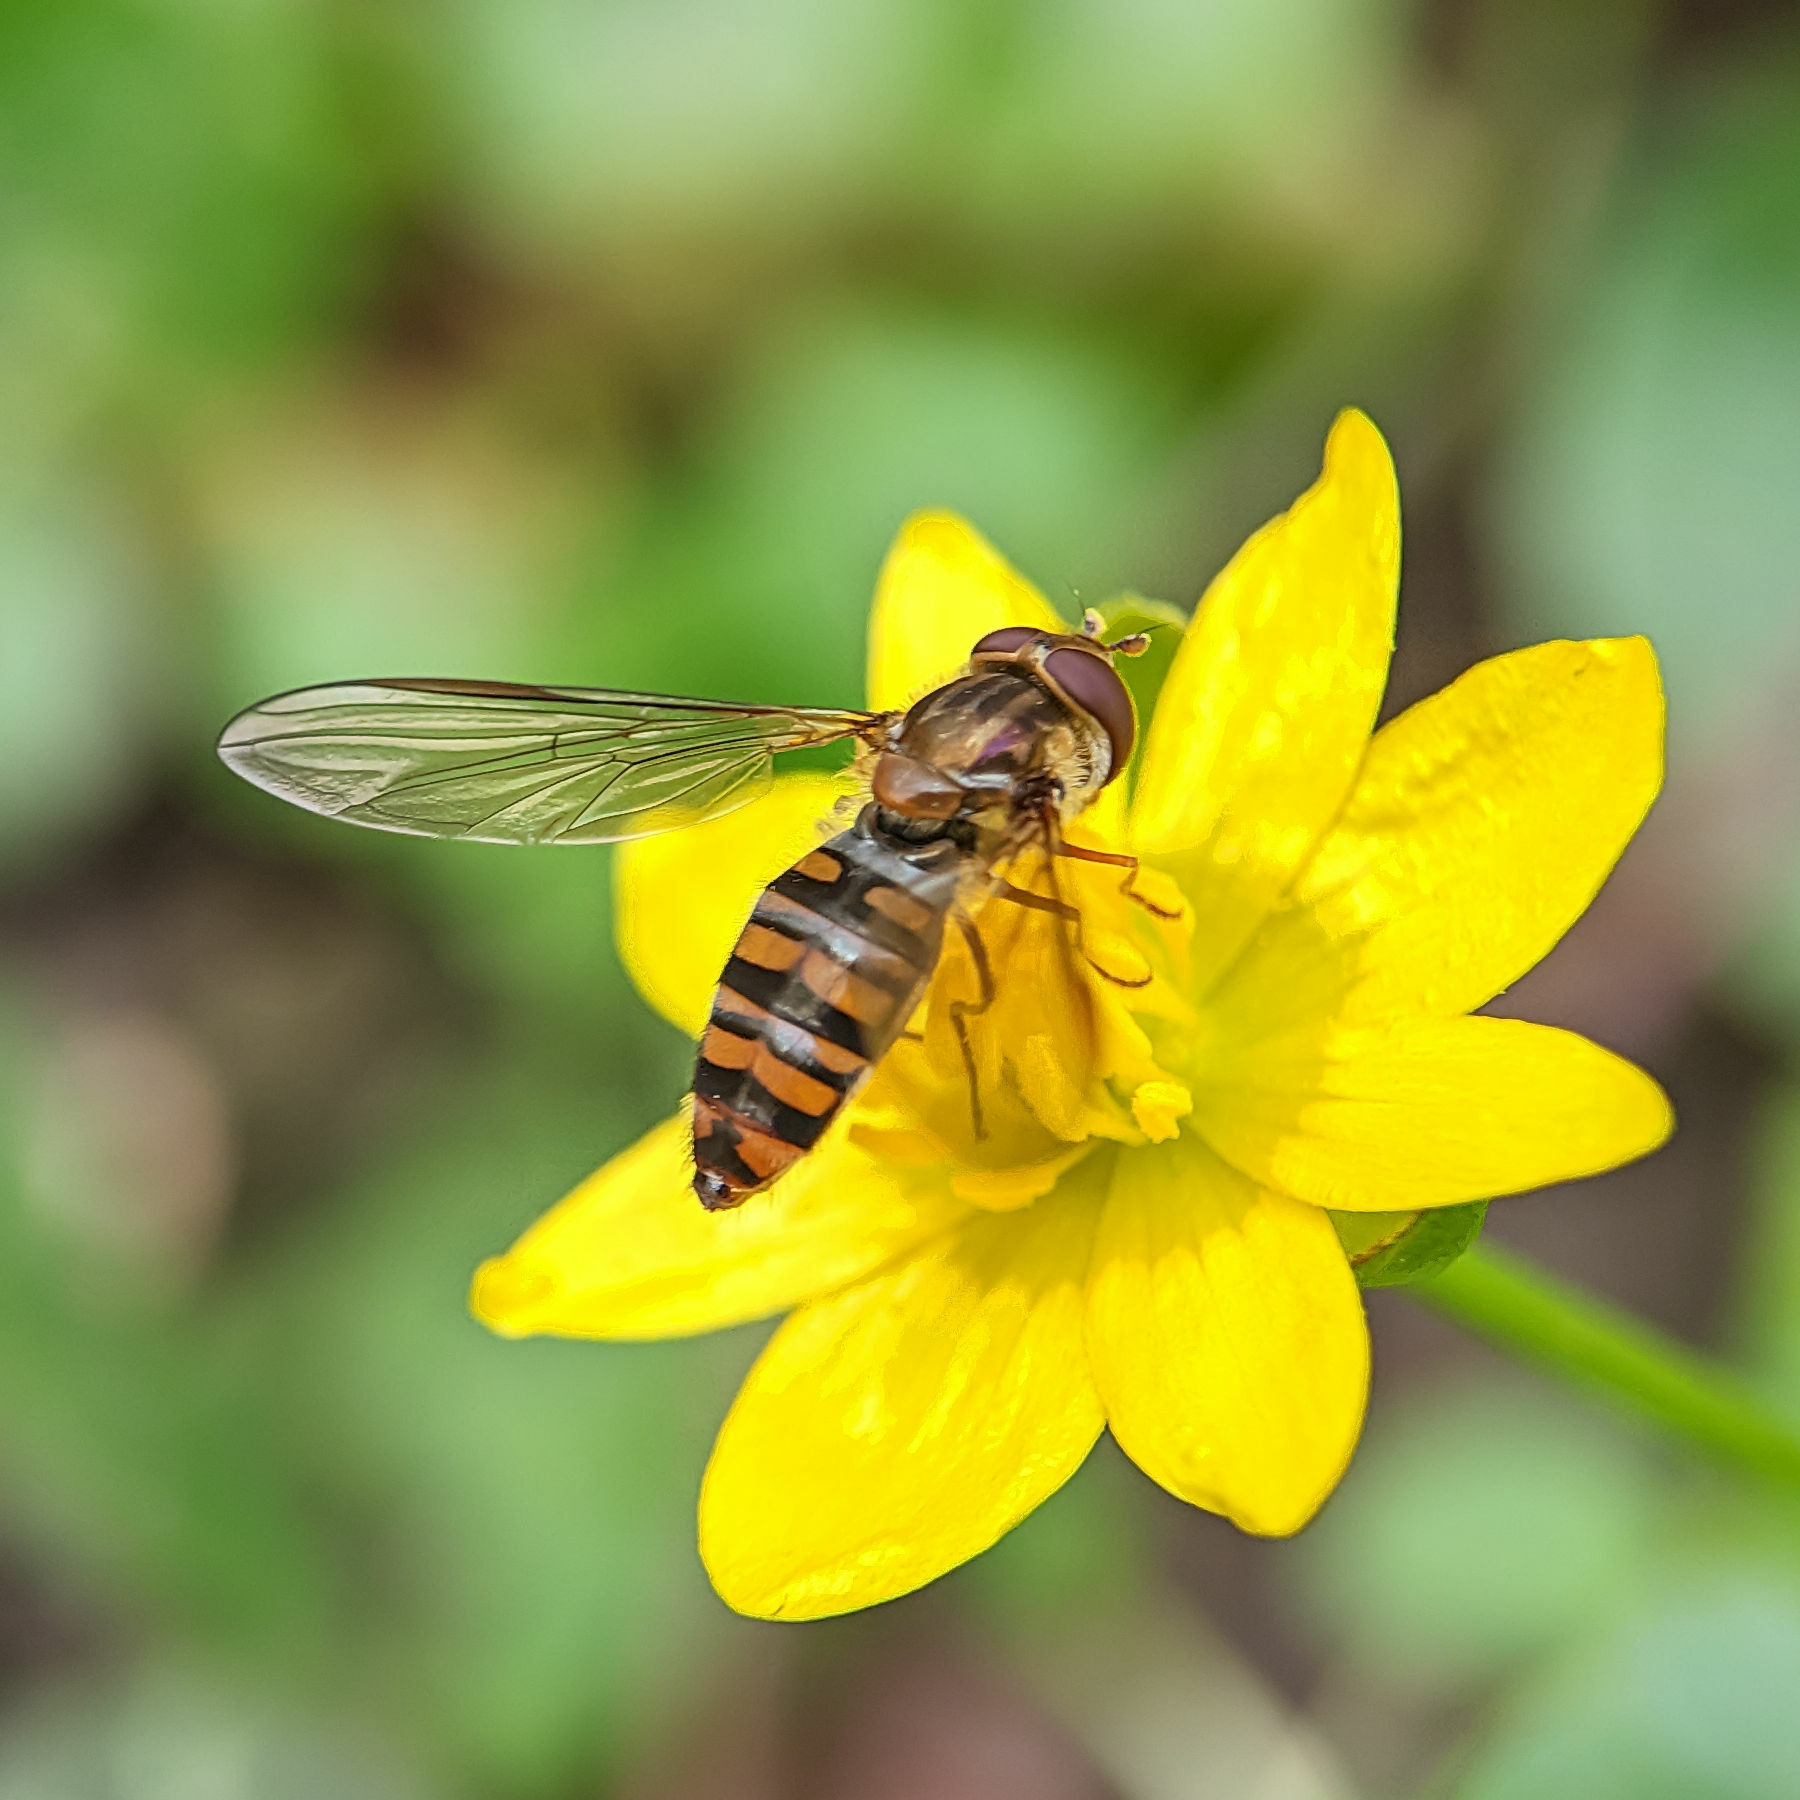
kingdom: Animalia
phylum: Arthropoda
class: Insecta
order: Diptera
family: Syrphidae
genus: Episyrphus
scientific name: Episyrphus balteatus
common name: Marmalade hoverfly
